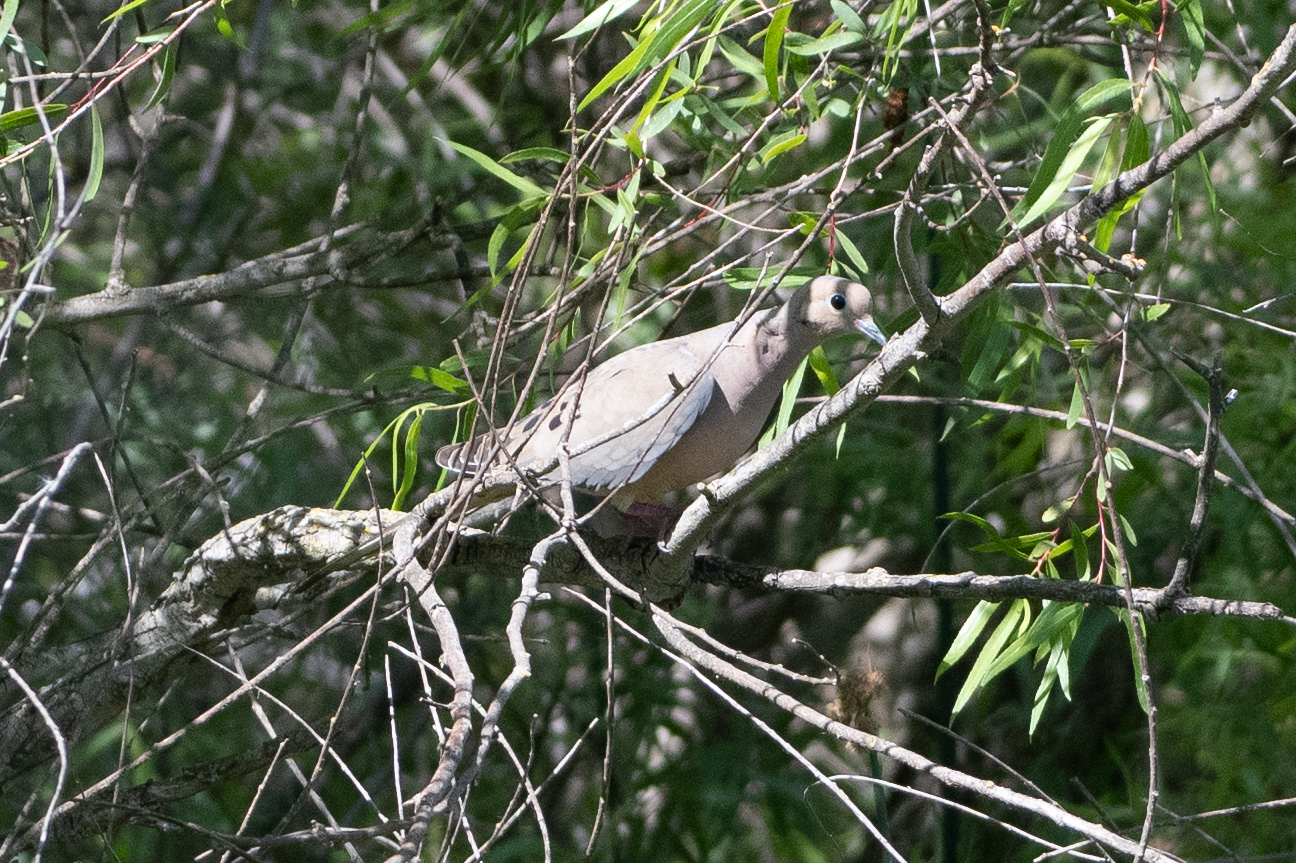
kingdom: Animalia
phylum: Chordata
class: Aves
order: Columbiformes
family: Columbidae
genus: Zenaida
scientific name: Zenaida macroura
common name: Mourning dove
